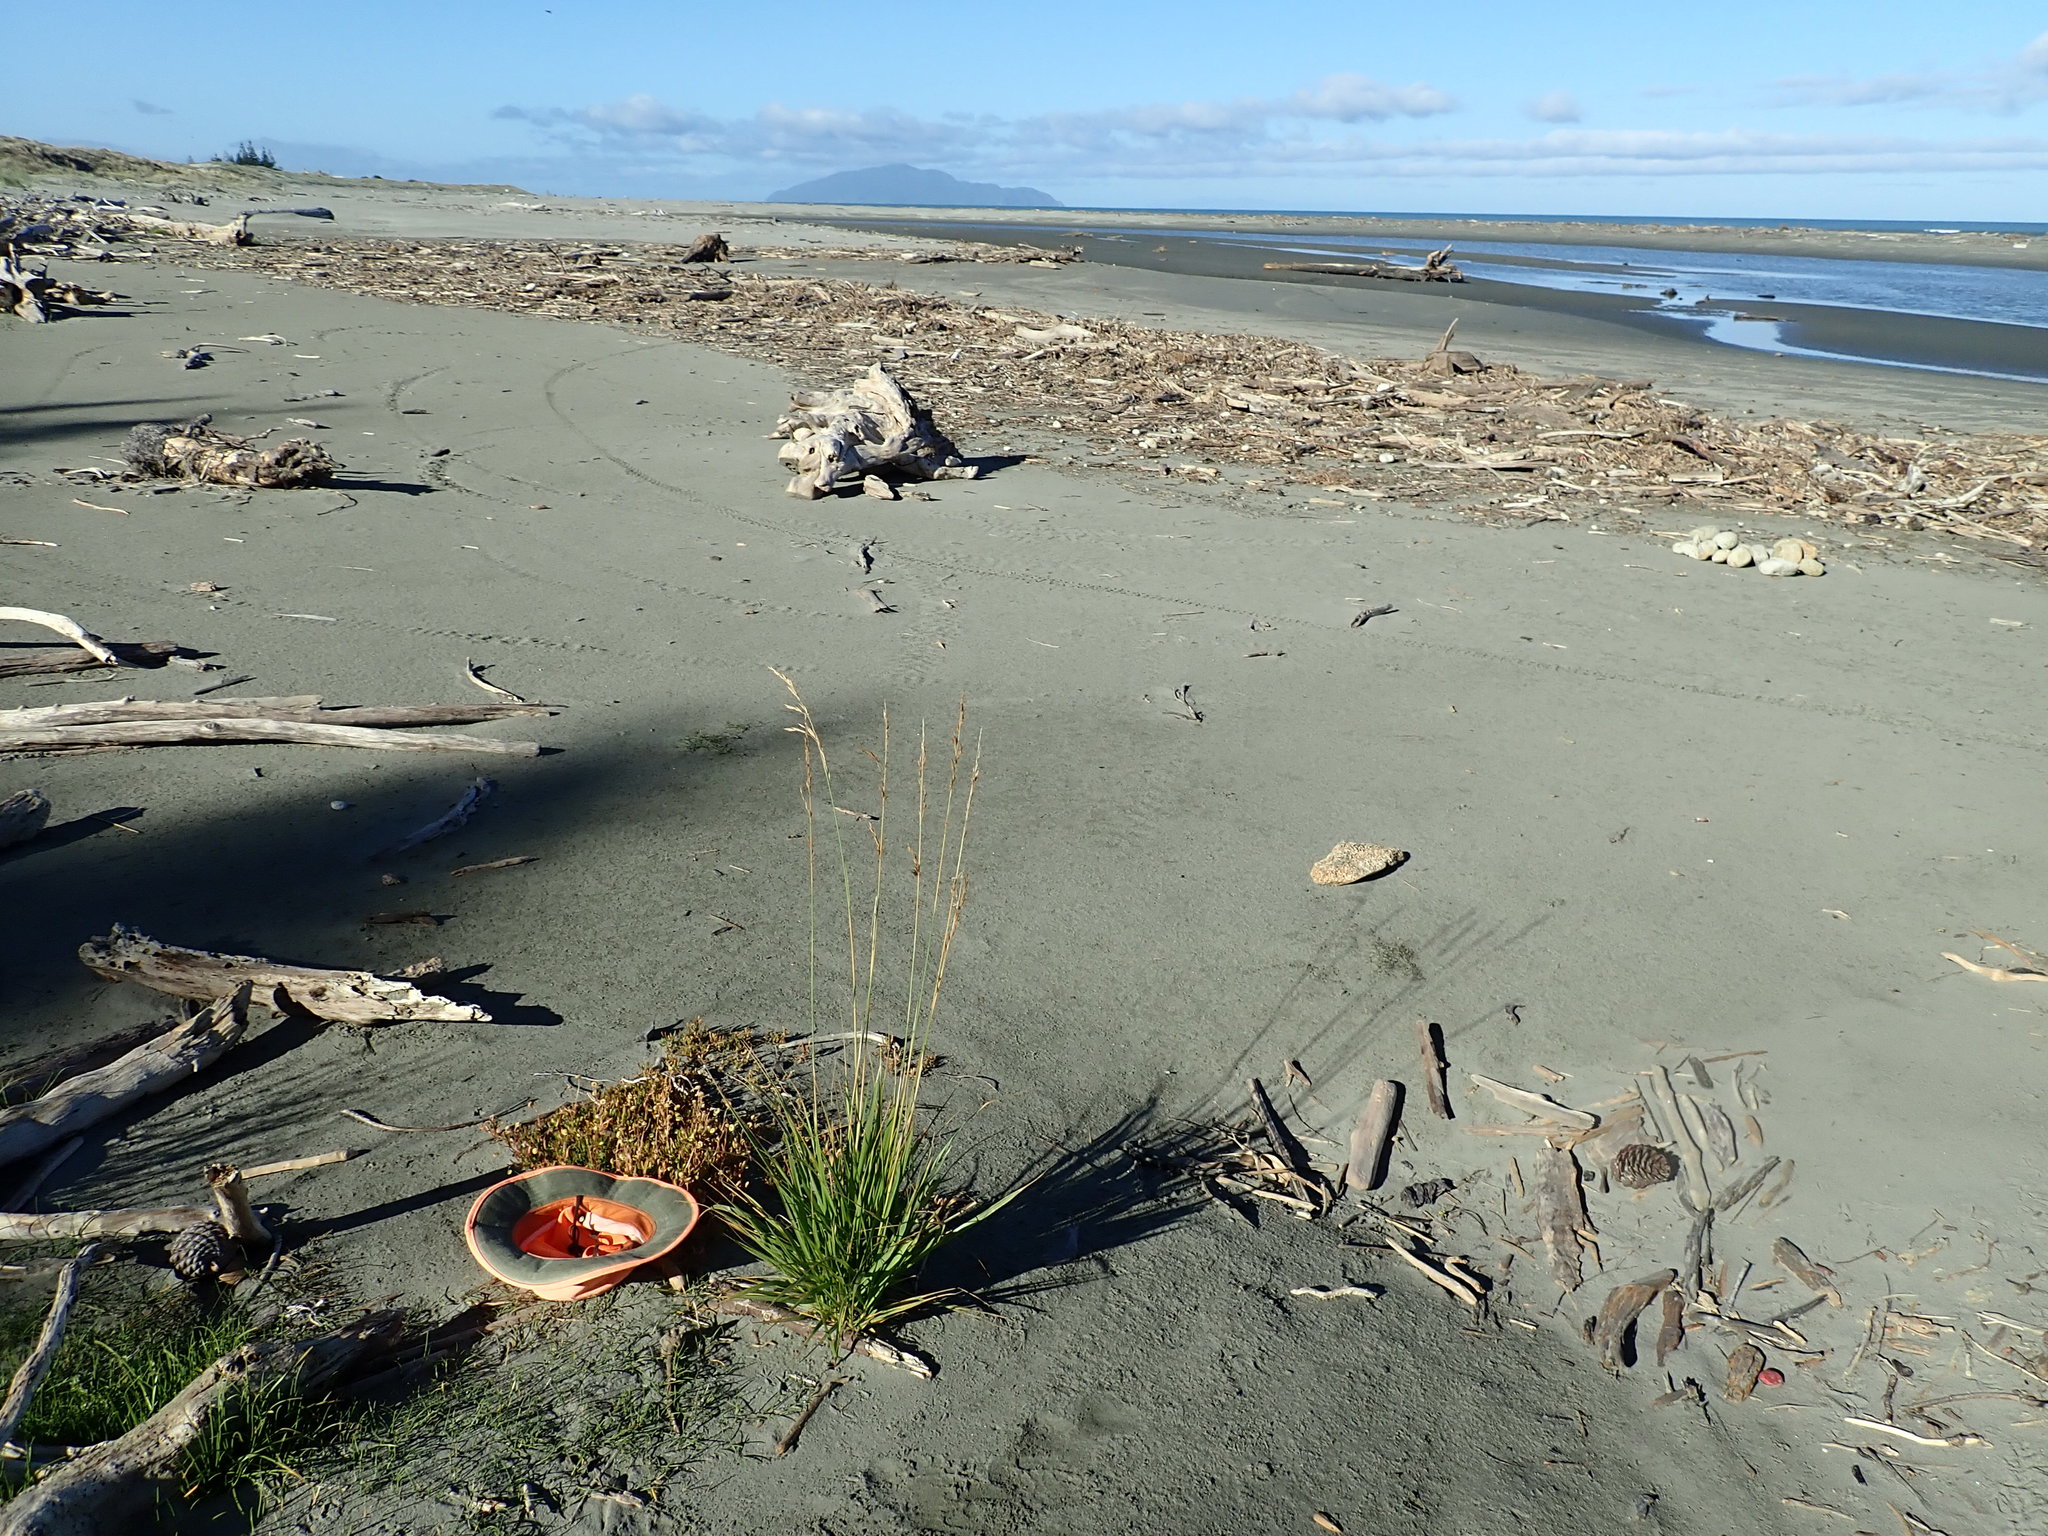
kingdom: Plantae
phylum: Tracheophyta
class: Magnoliopsida
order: Asterales
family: Asteraceae
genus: Cotula
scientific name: Cotula coronopifolia
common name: Buttonweed
